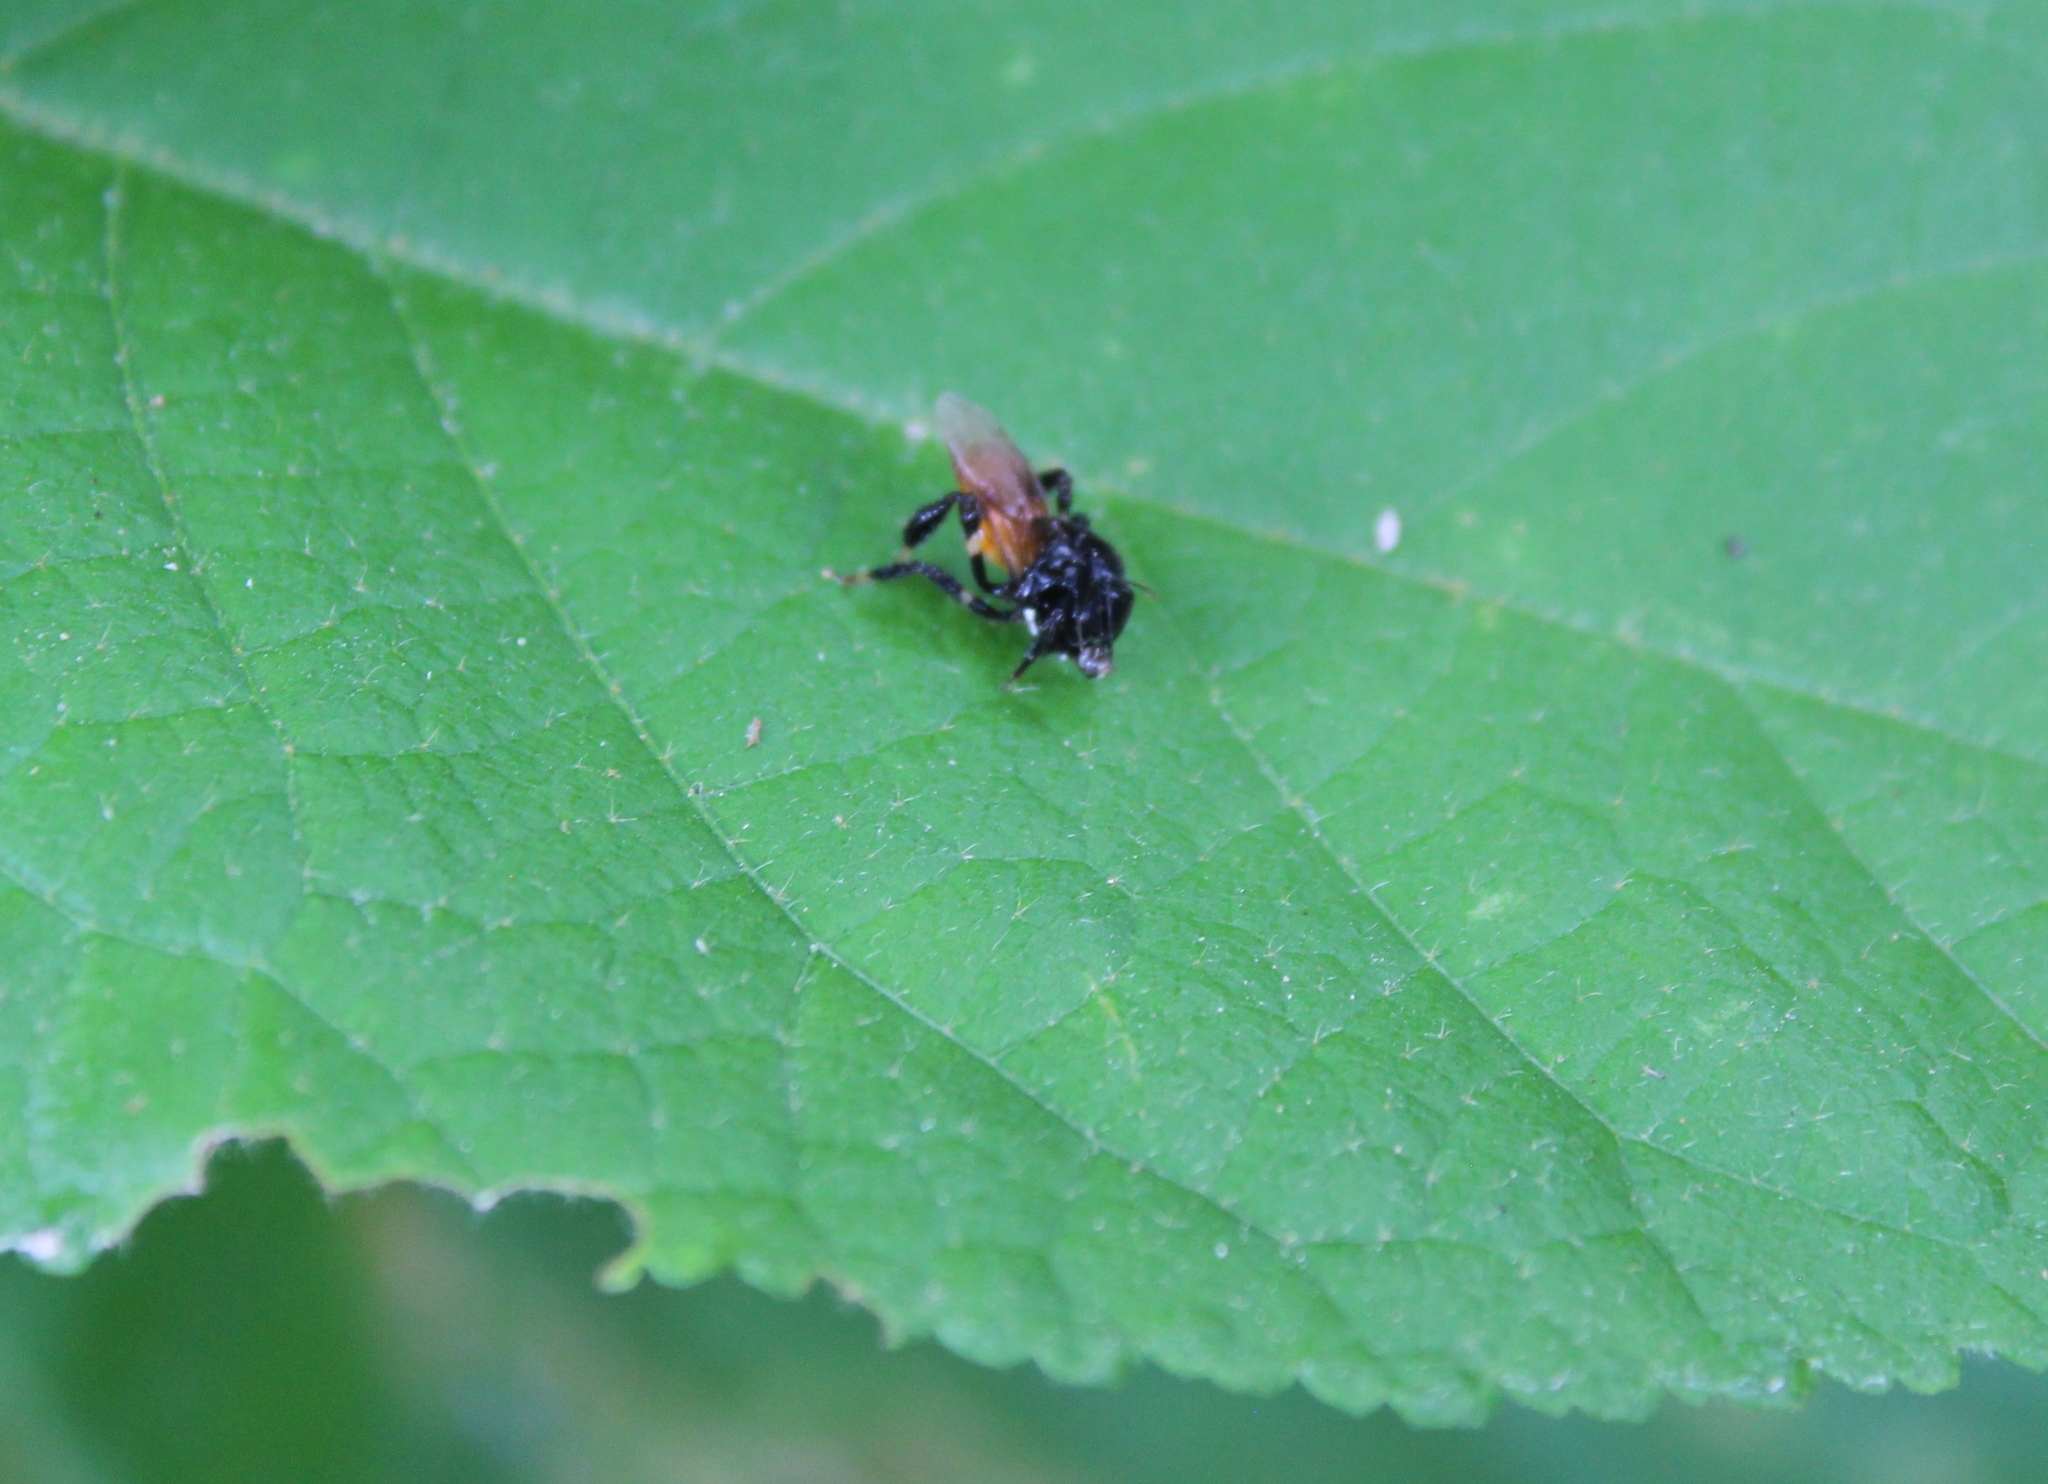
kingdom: Animalia
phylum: Arthropoda
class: Insecta
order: Hymenoptera
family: Apidae
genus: Trigona
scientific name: Trigona fulviventris
